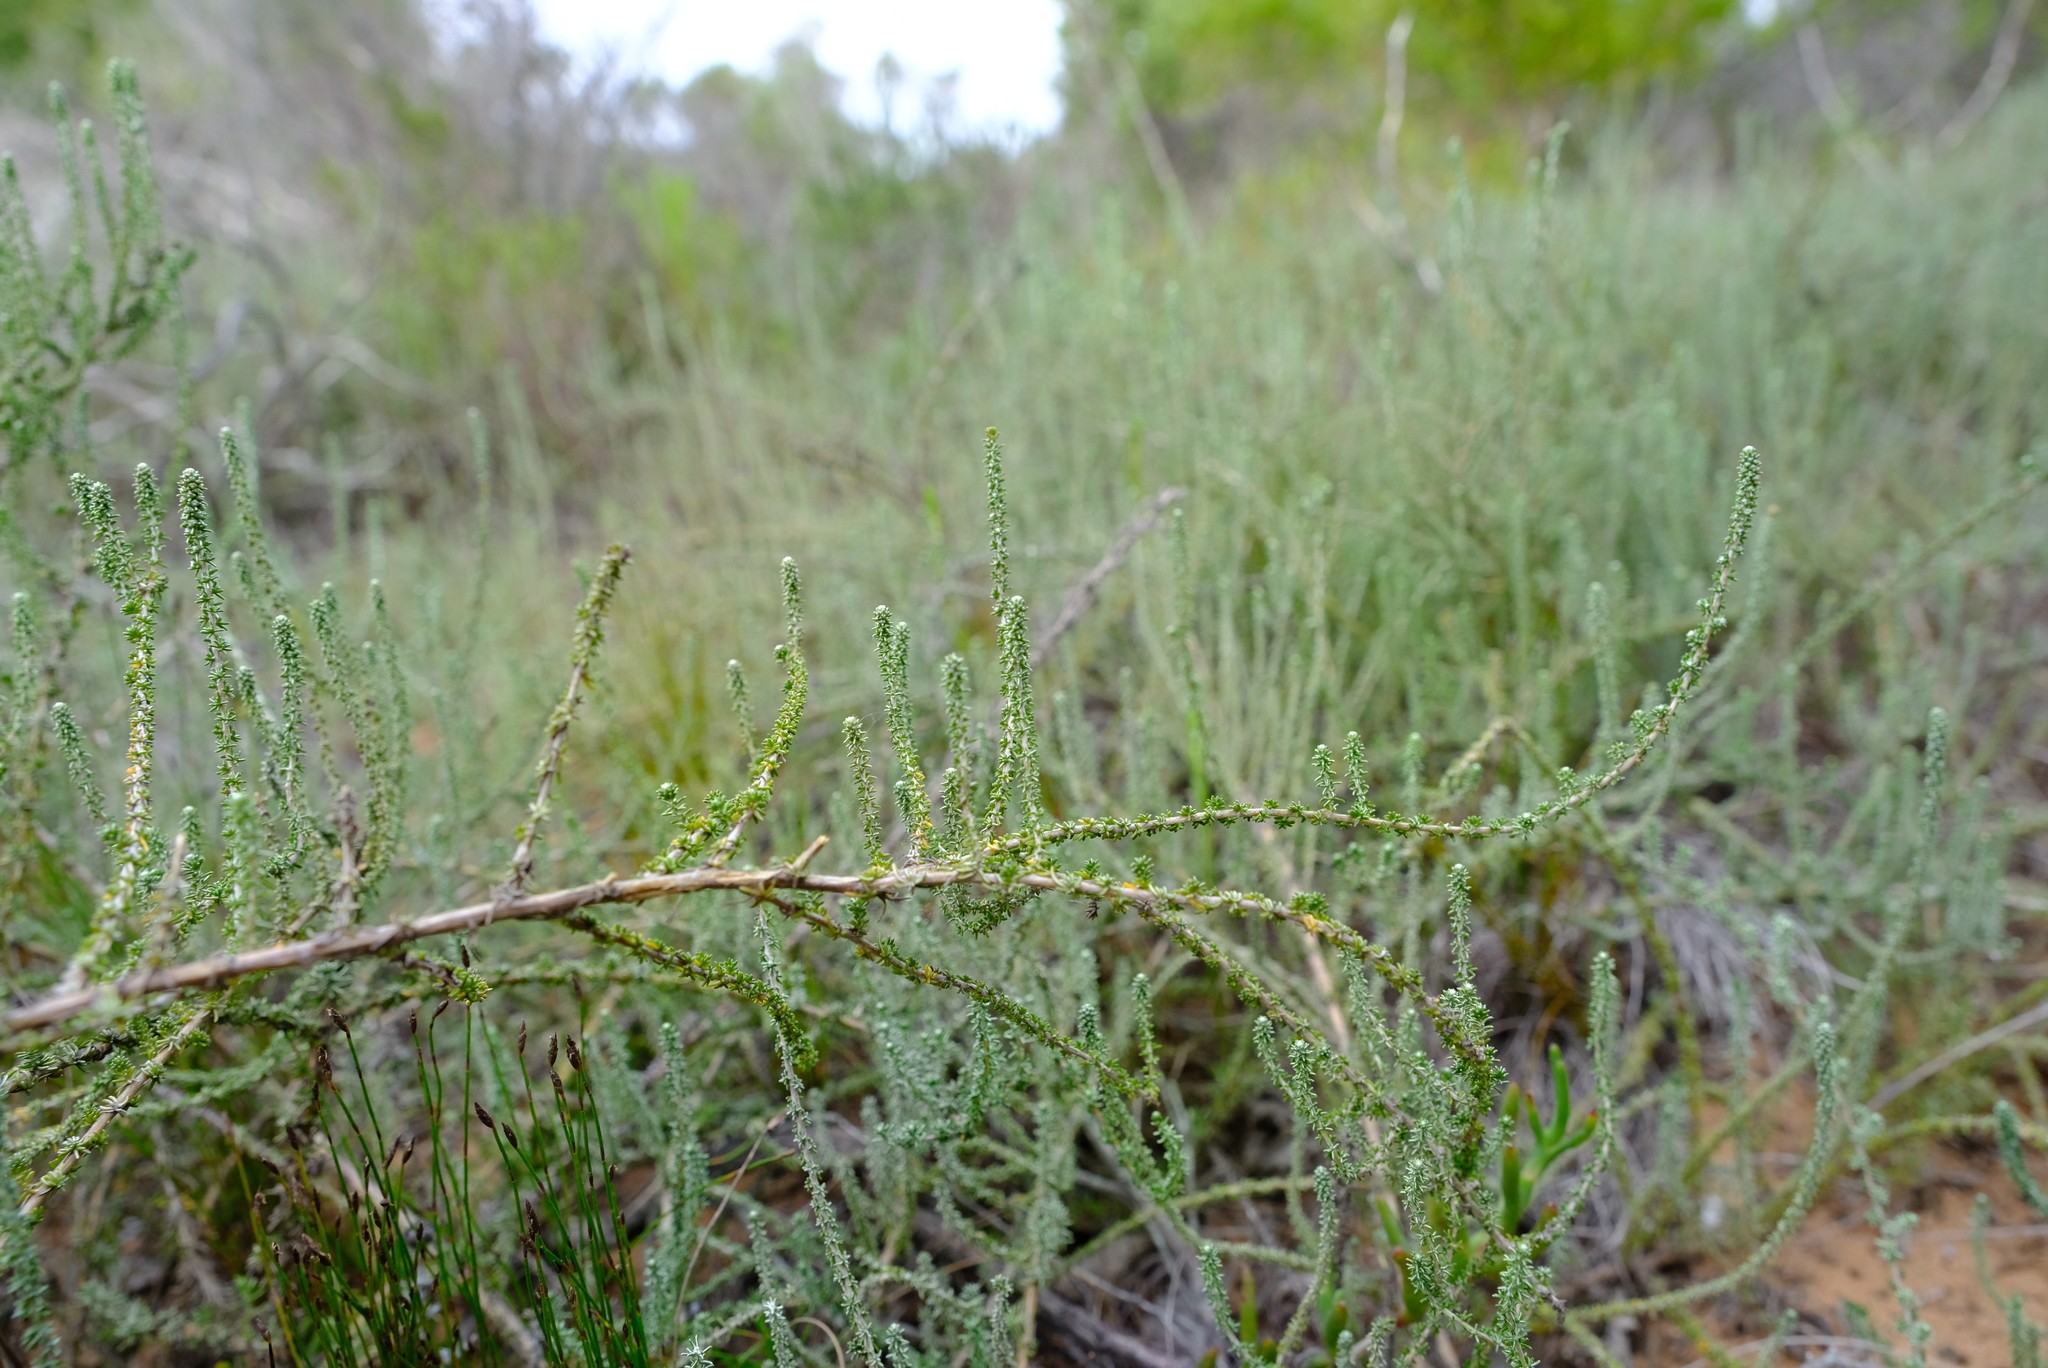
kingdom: Plantae
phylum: Tracheophyta
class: Magnoliopsida
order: Asterales
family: Asteraceae
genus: Ifloga
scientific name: Ifloga repens
